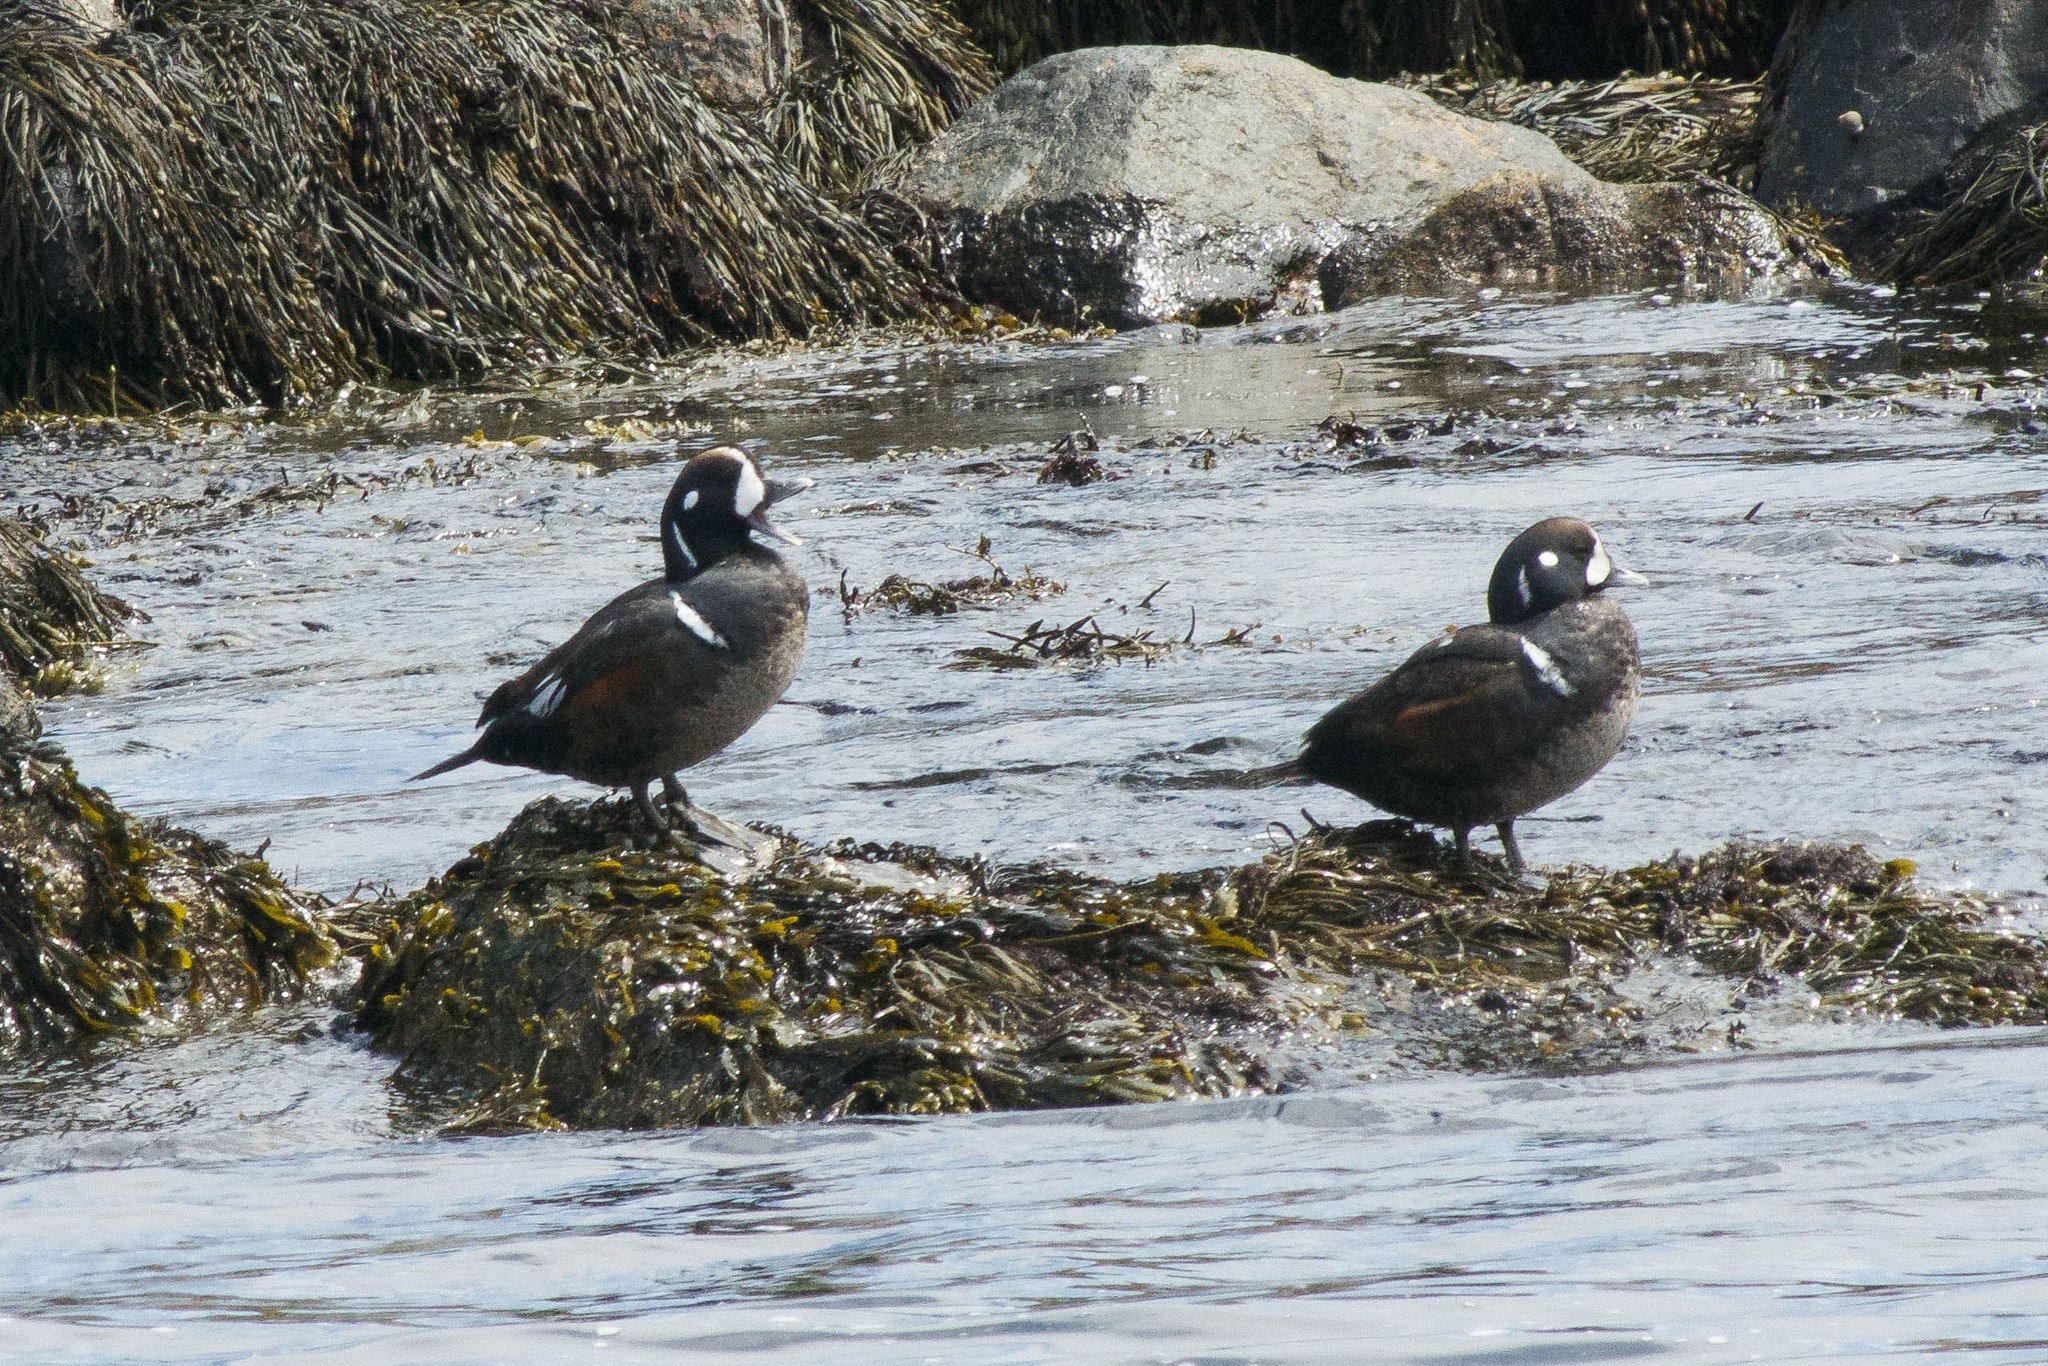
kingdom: Animalia
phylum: Chordata
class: Aves
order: Anseriformes
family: Anatidae
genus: Histrionicus
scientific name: Histrionicus histrionicus
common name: Harlequin duck
